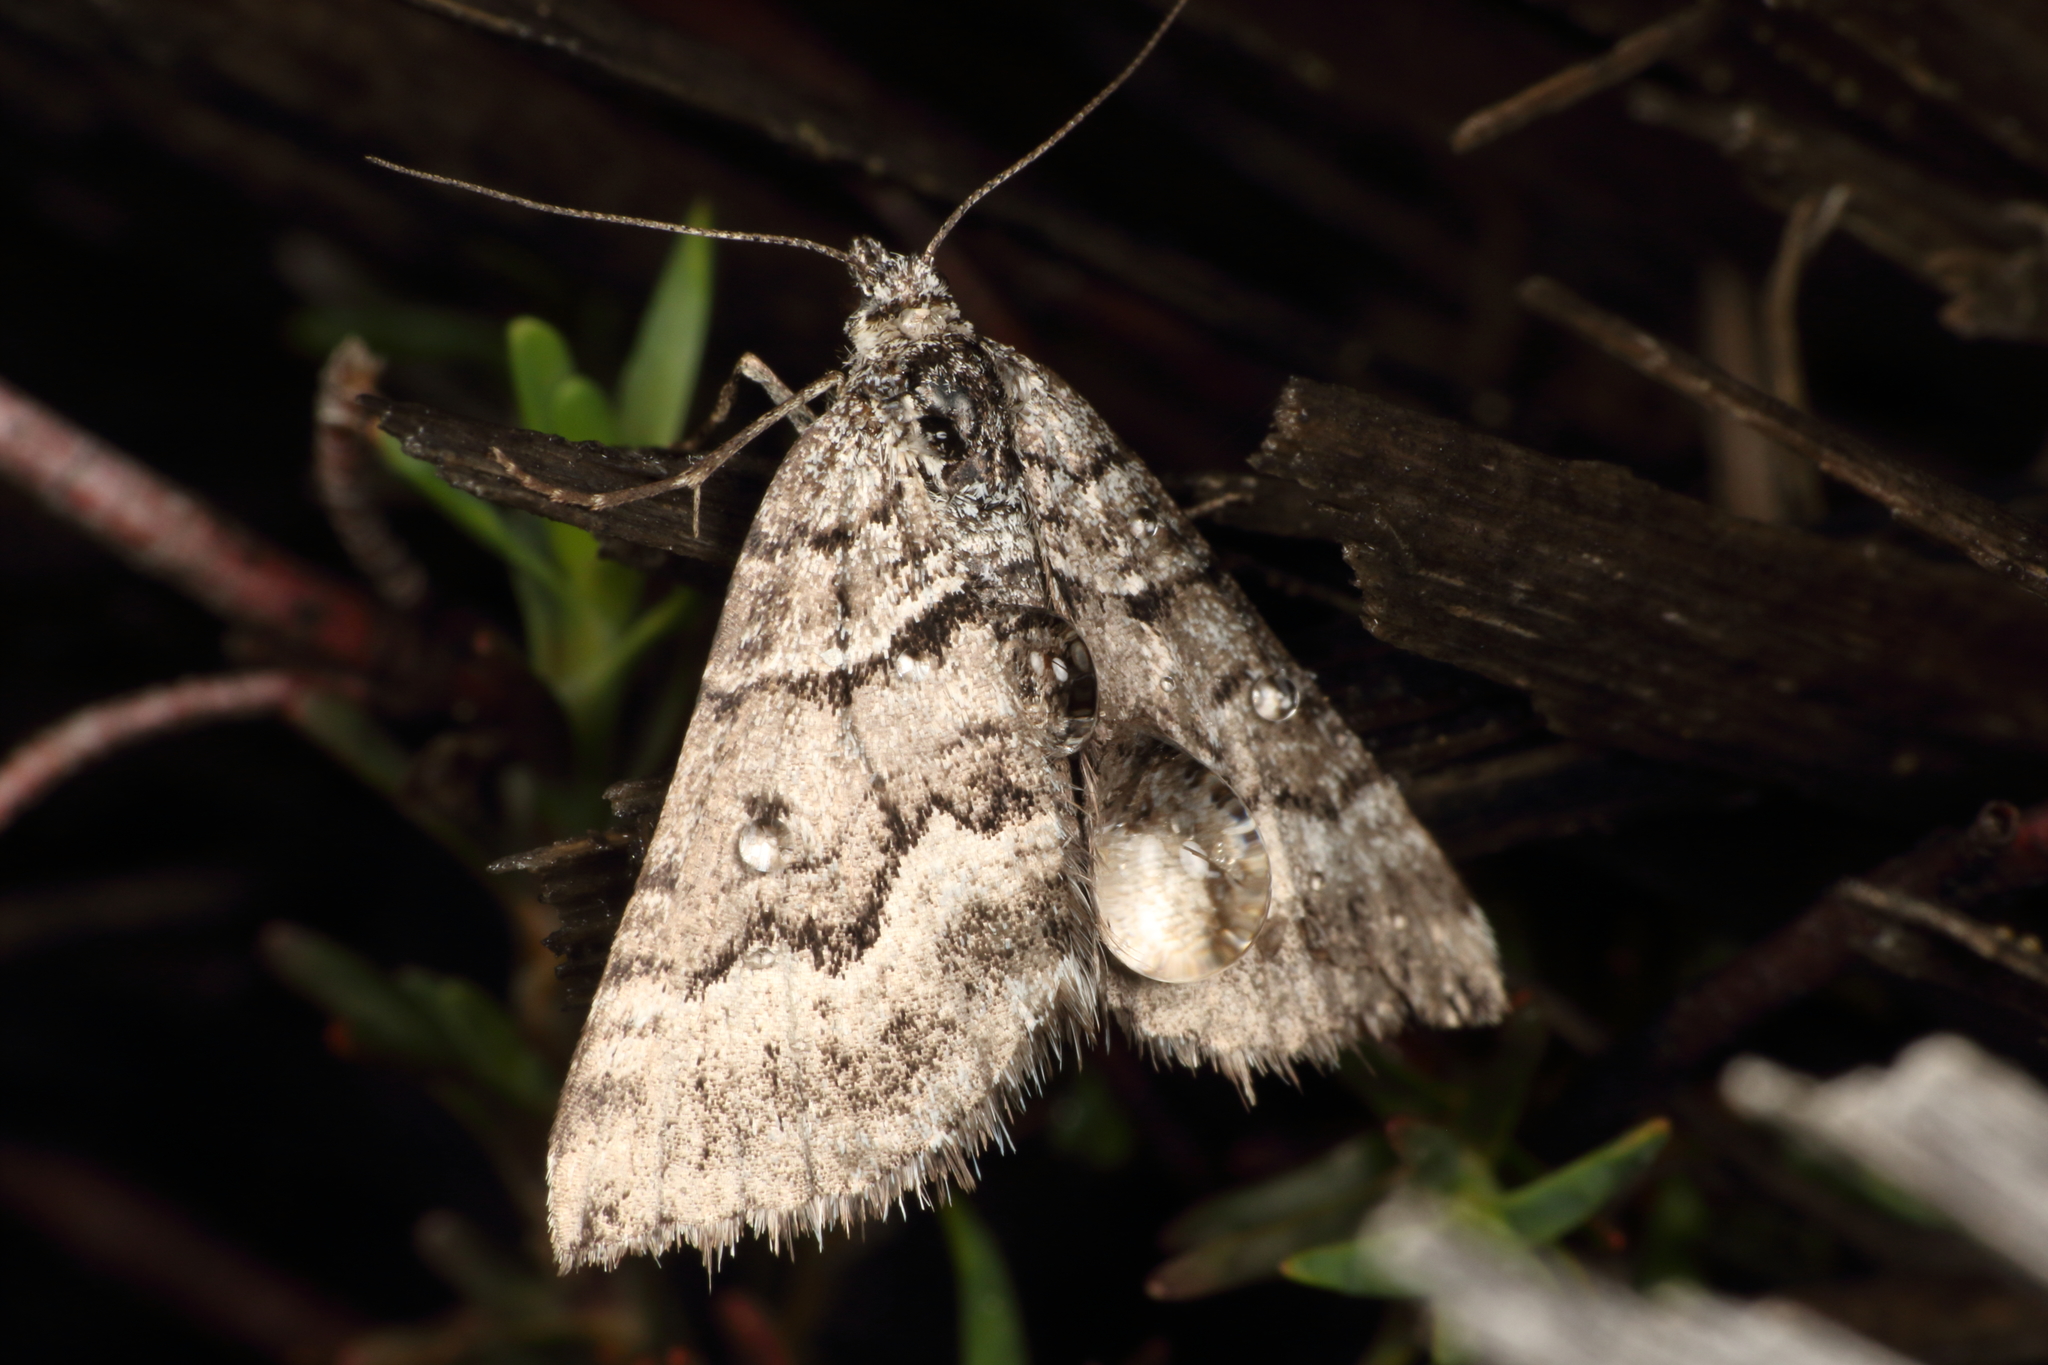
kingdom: Animalia
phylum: Arthropoda
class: Insecta
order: Lepidoptera
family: Geometridae
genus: Aponotoreas
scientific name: Aponotoreas anthracias
